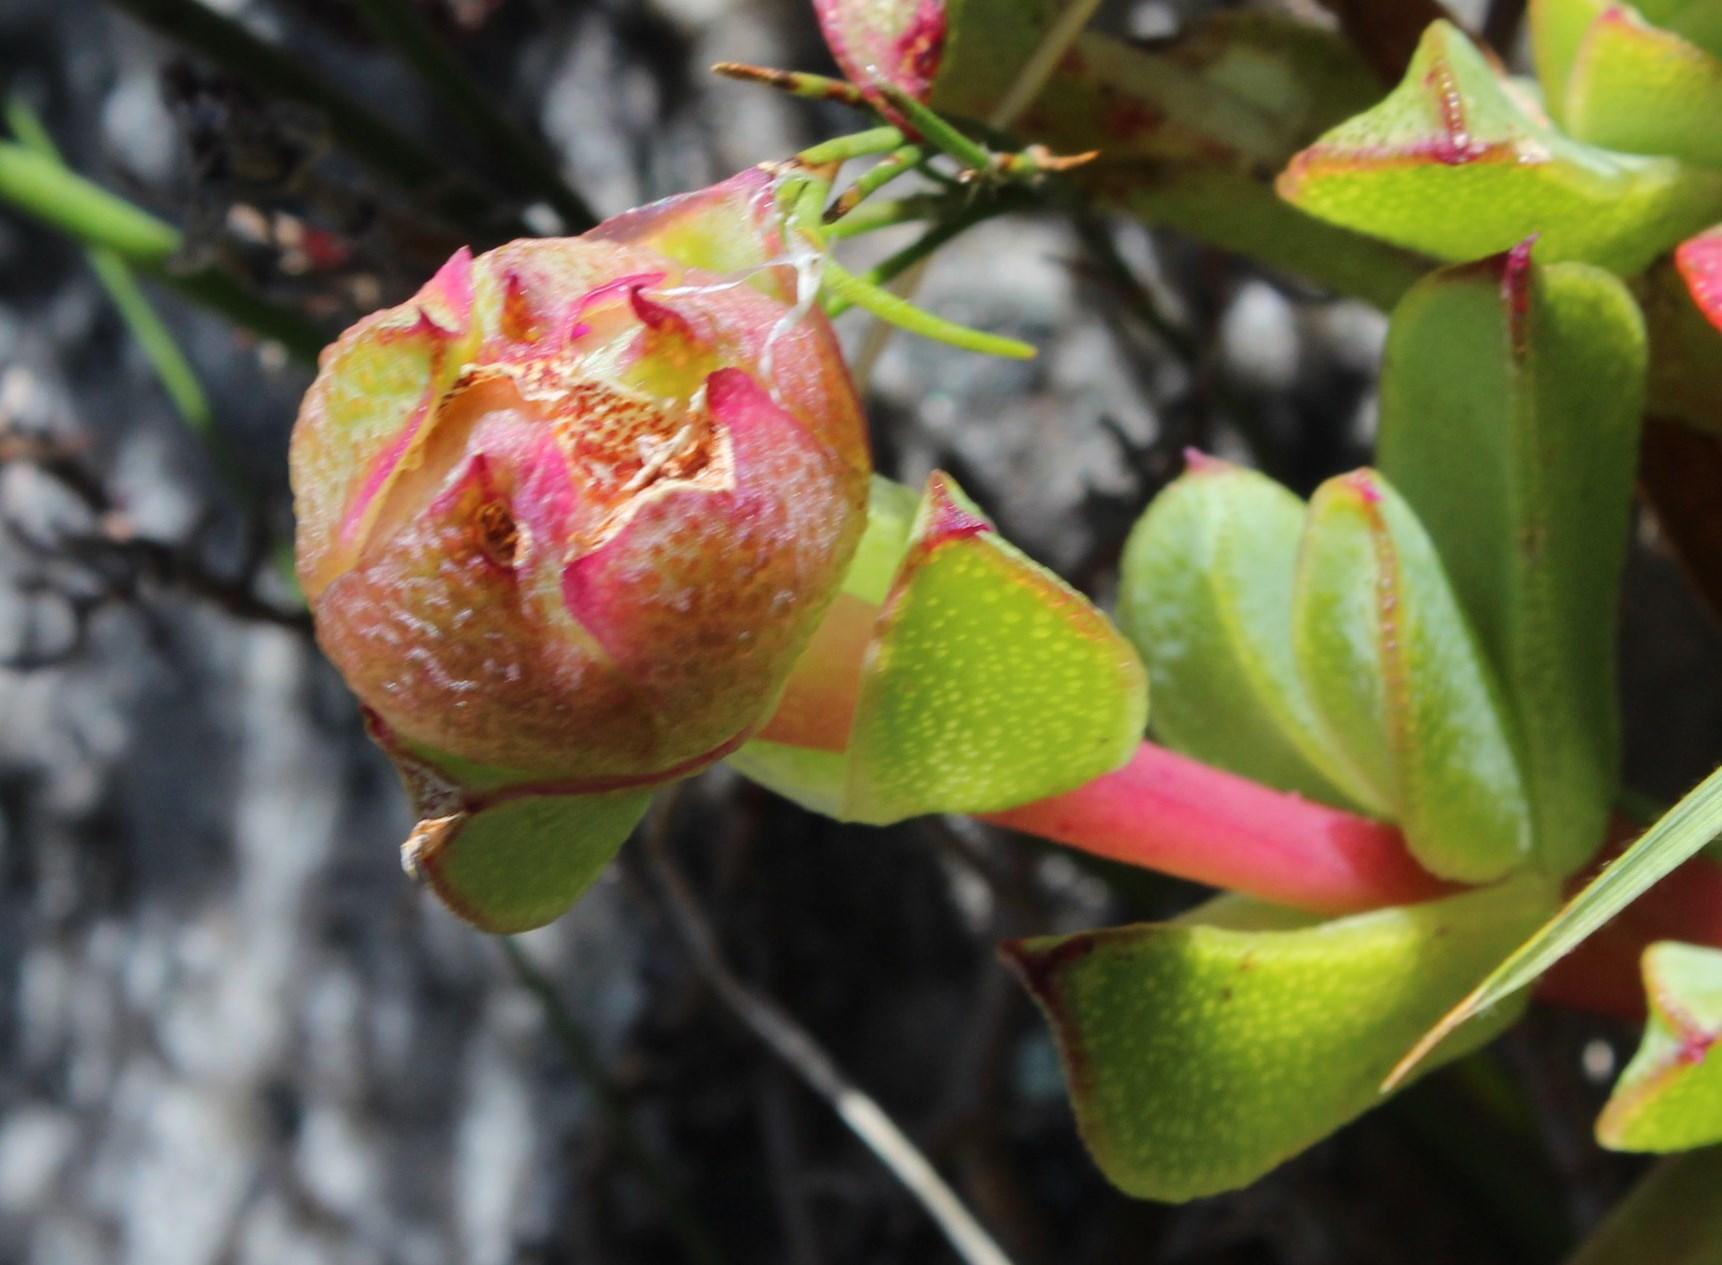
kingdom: Plantae
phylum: Tracheophyta
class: Magnoliopsida
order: Caryophyllales
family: Aizoaceae
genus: Erepsia
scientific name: Erepsia forficata
